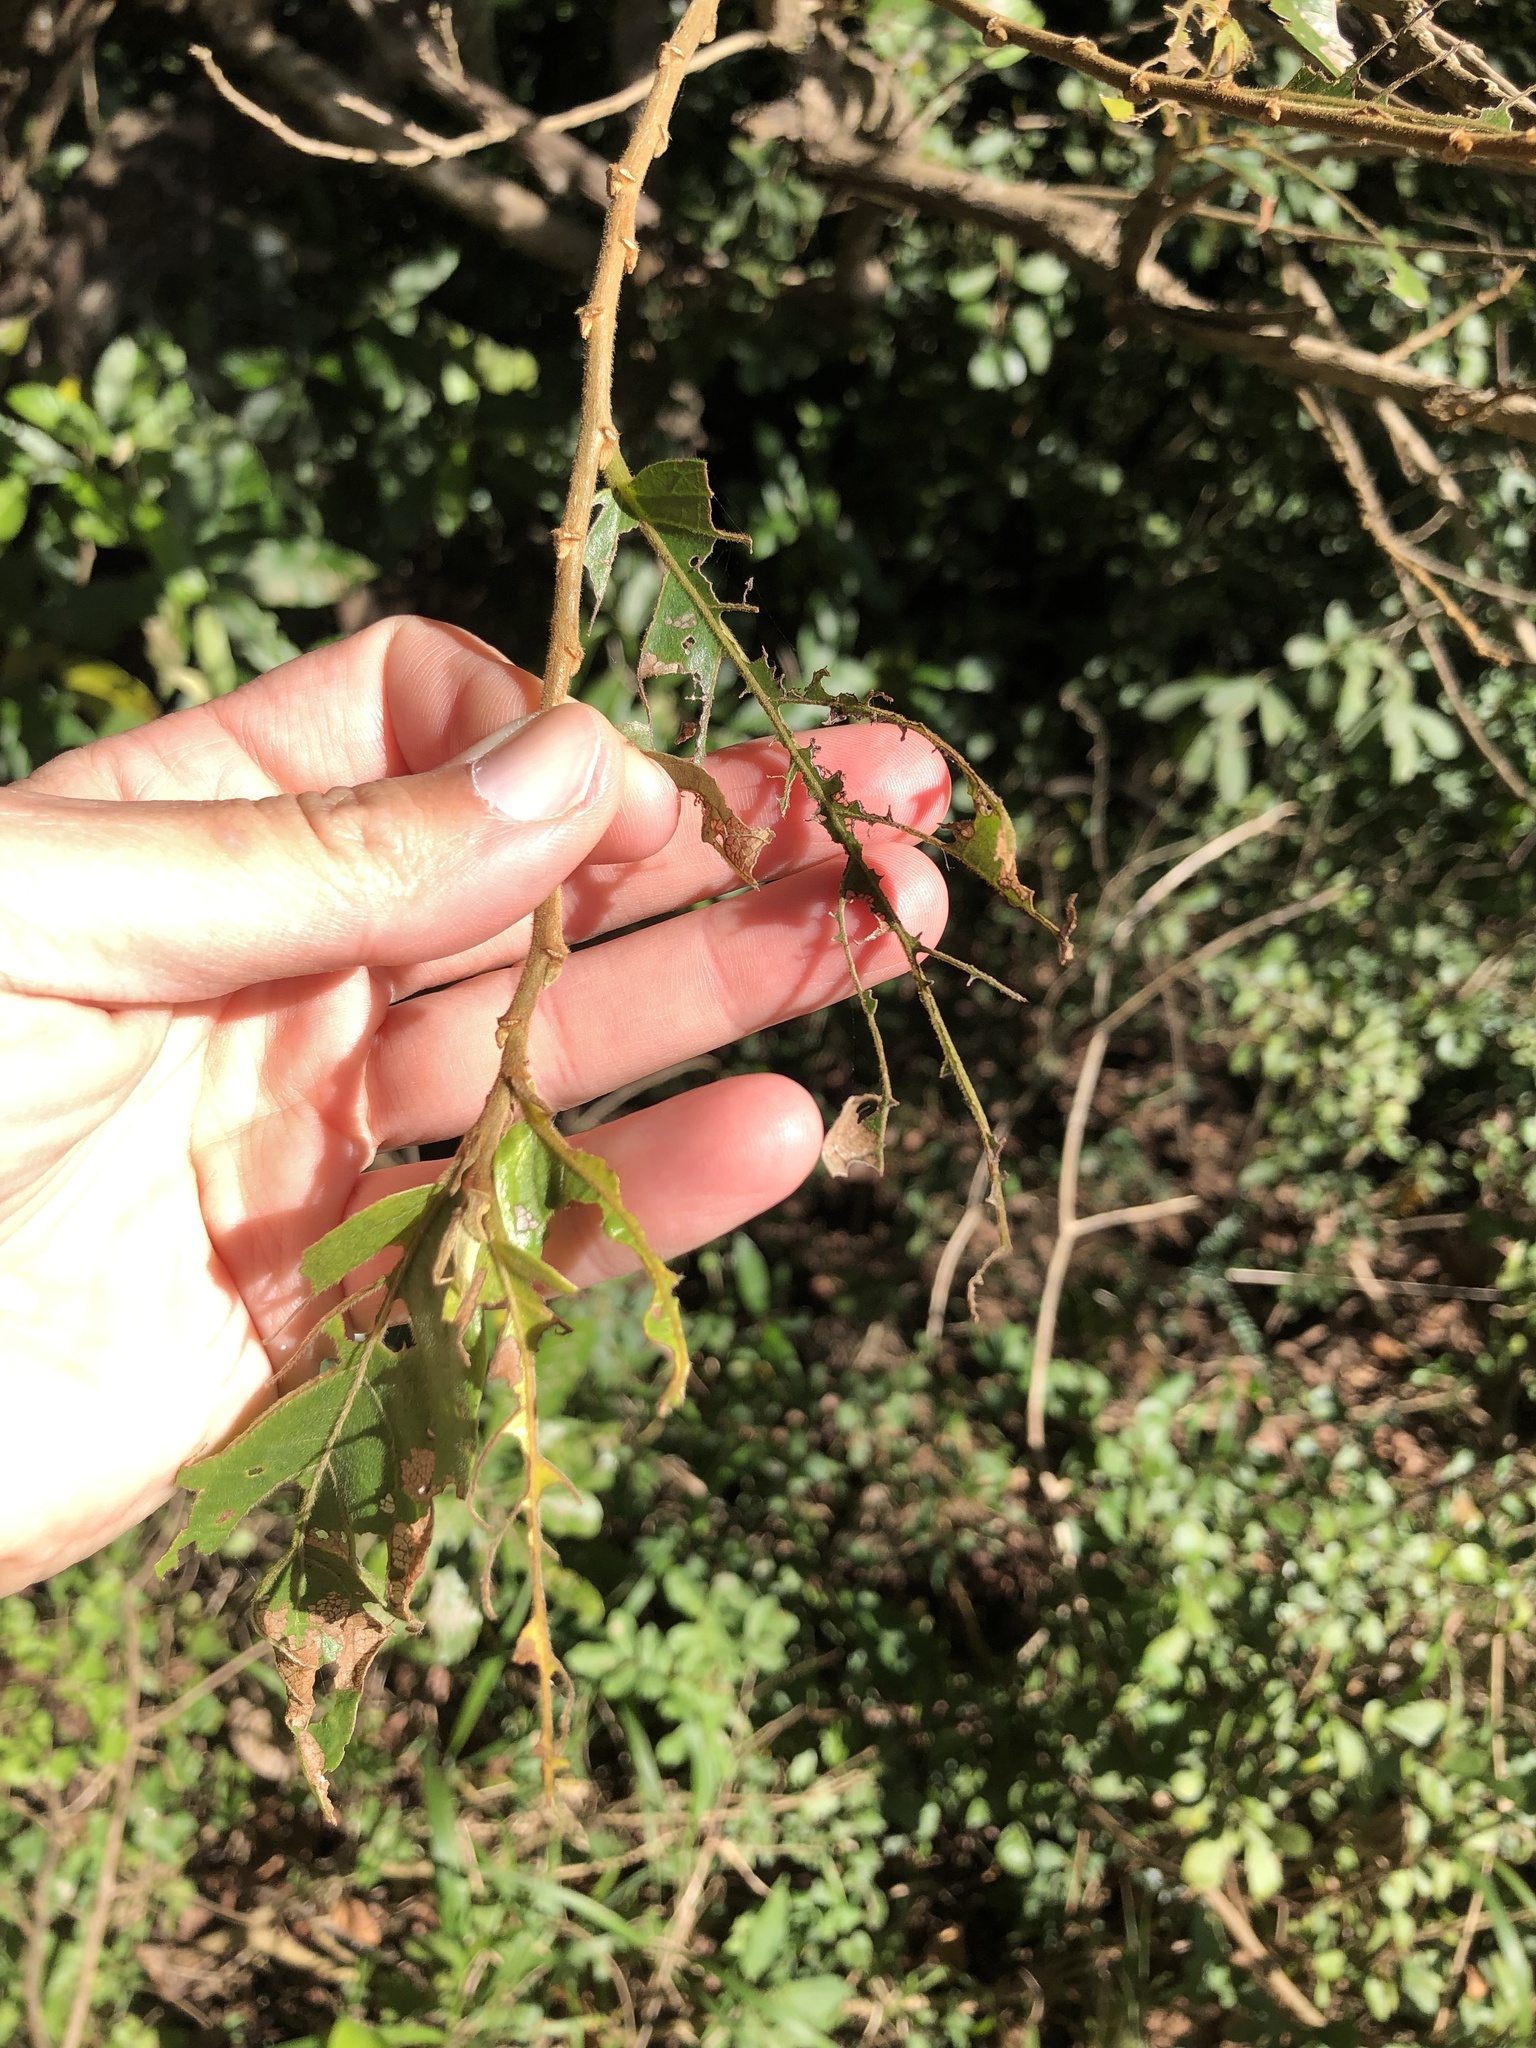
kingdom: Plantae
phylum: Tracheophyta
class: Magnoliopsida
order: Malpighiales
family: Phyllanthaceae
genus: Antidesma
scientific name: Antidesma venosum
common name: Tassel-berry
